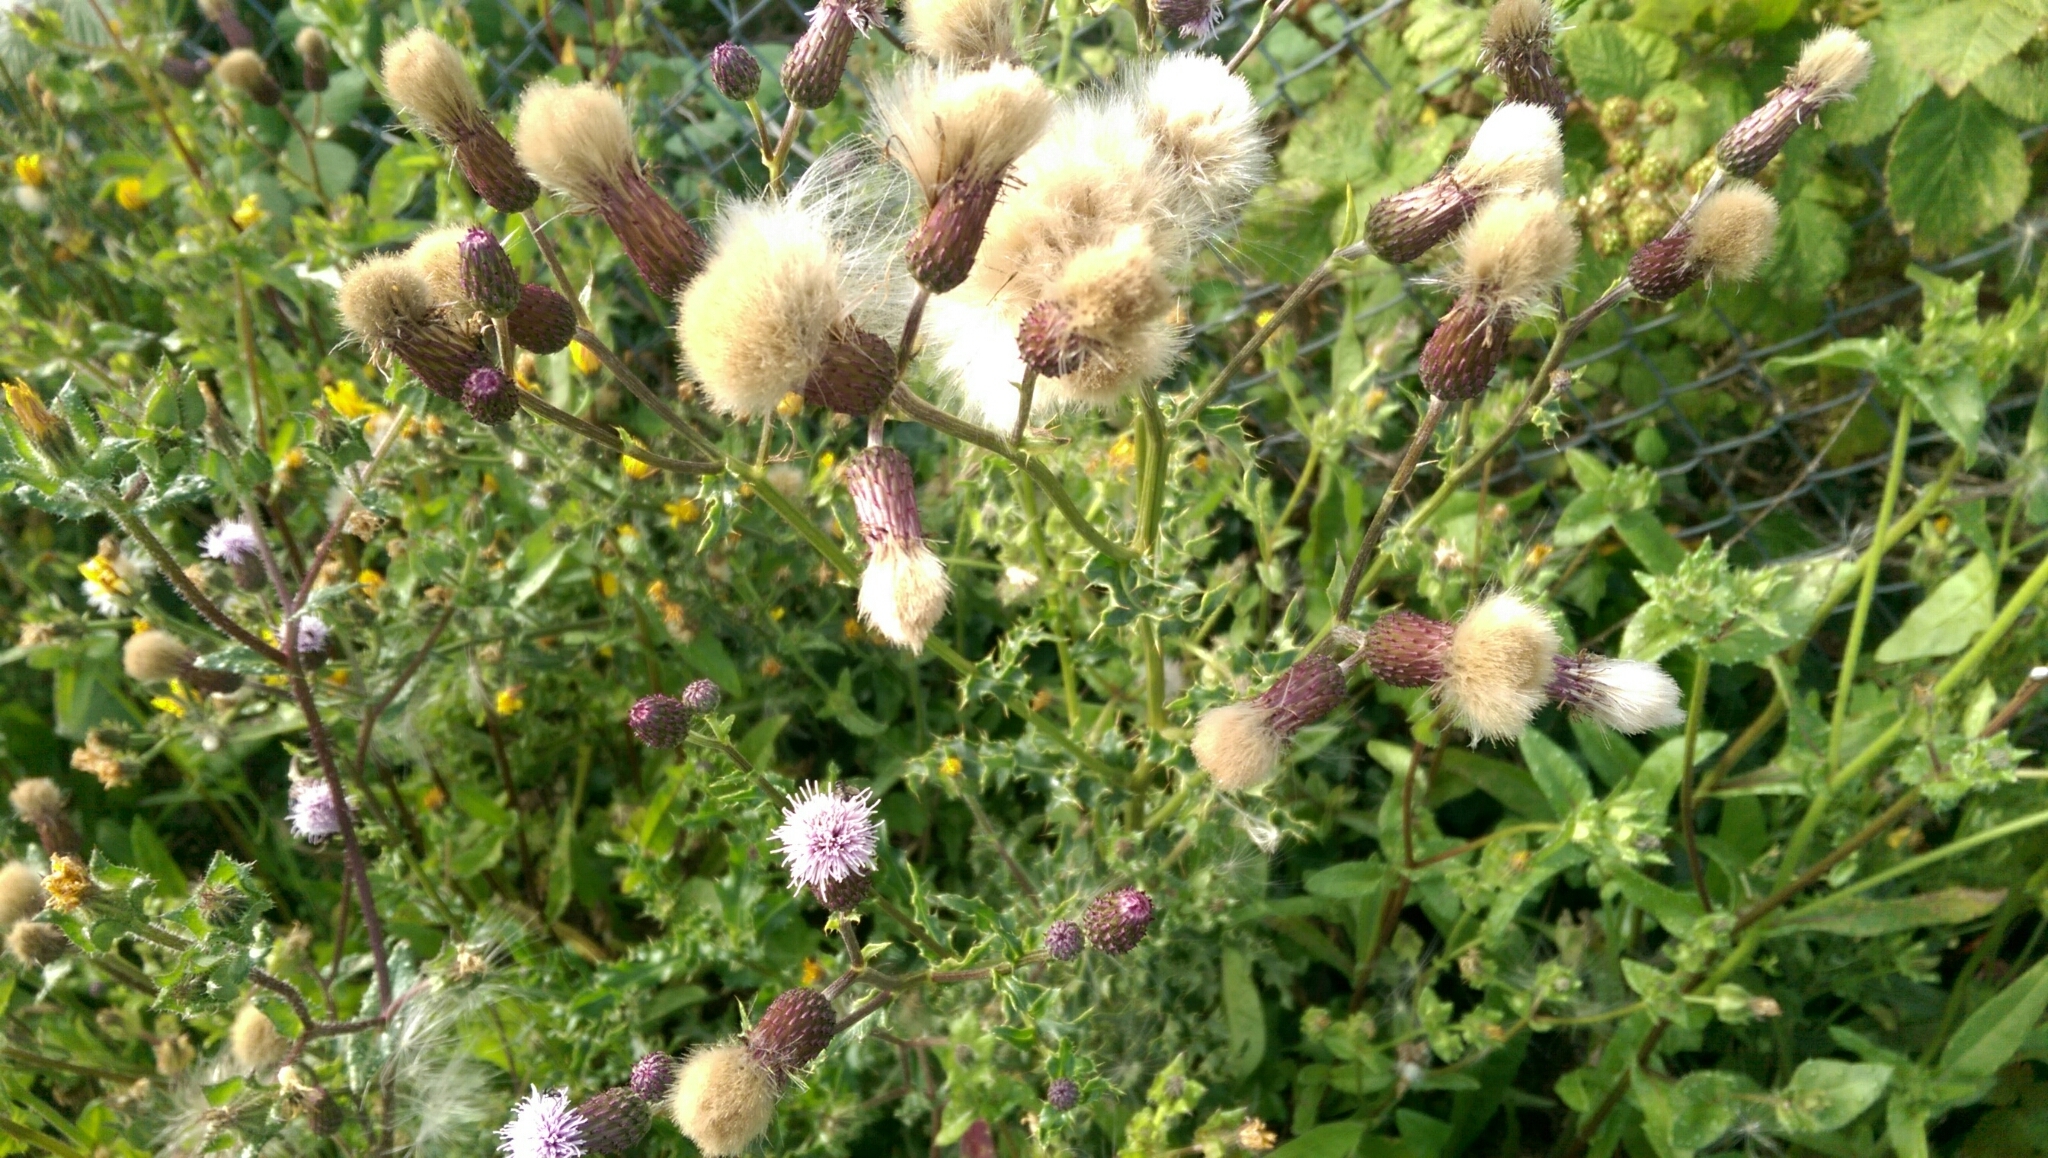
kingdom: Plantae
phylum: Tracheophyta
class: Magnoliopsida
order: Asterales
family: Asteraceae
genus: Cirsium
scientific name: Cirsium arvense
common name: Creeping thistle
